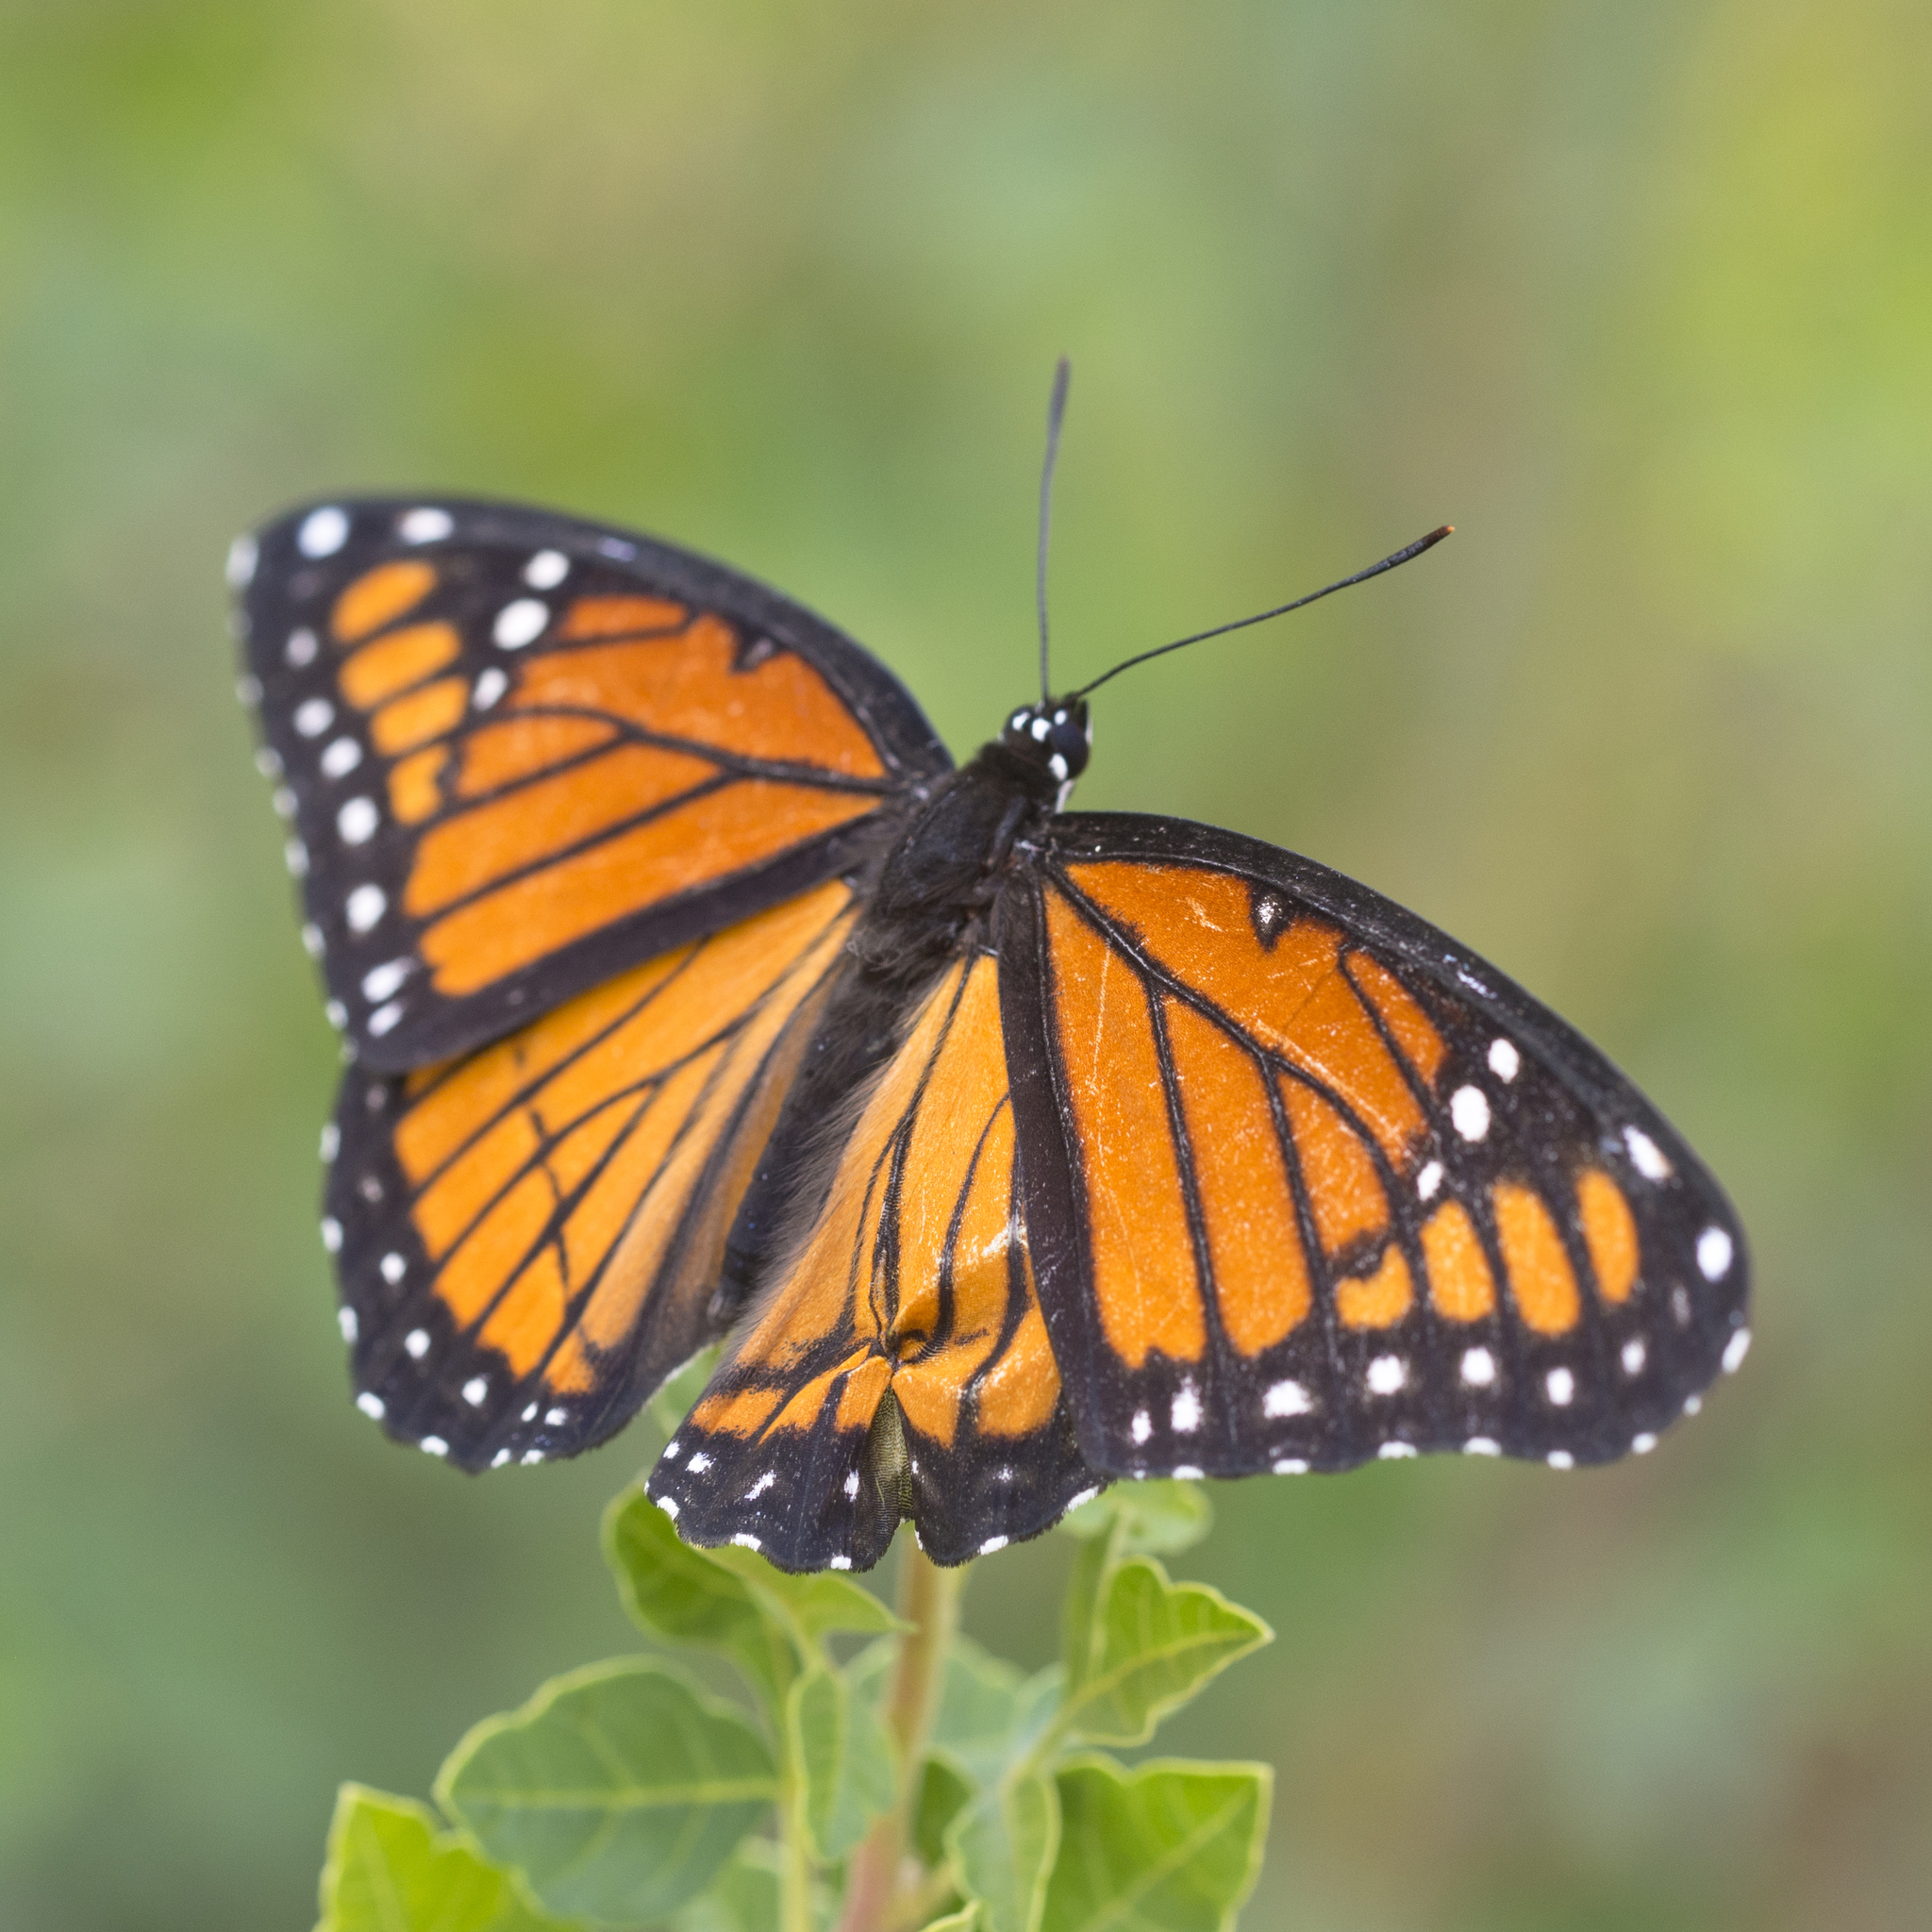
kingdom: Animalia
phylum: Arthropoda
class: Insecta
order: Lepidoptera
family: Nymphalidae
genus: Limenitis
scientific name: Limenitis archippus
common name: Viceroy
